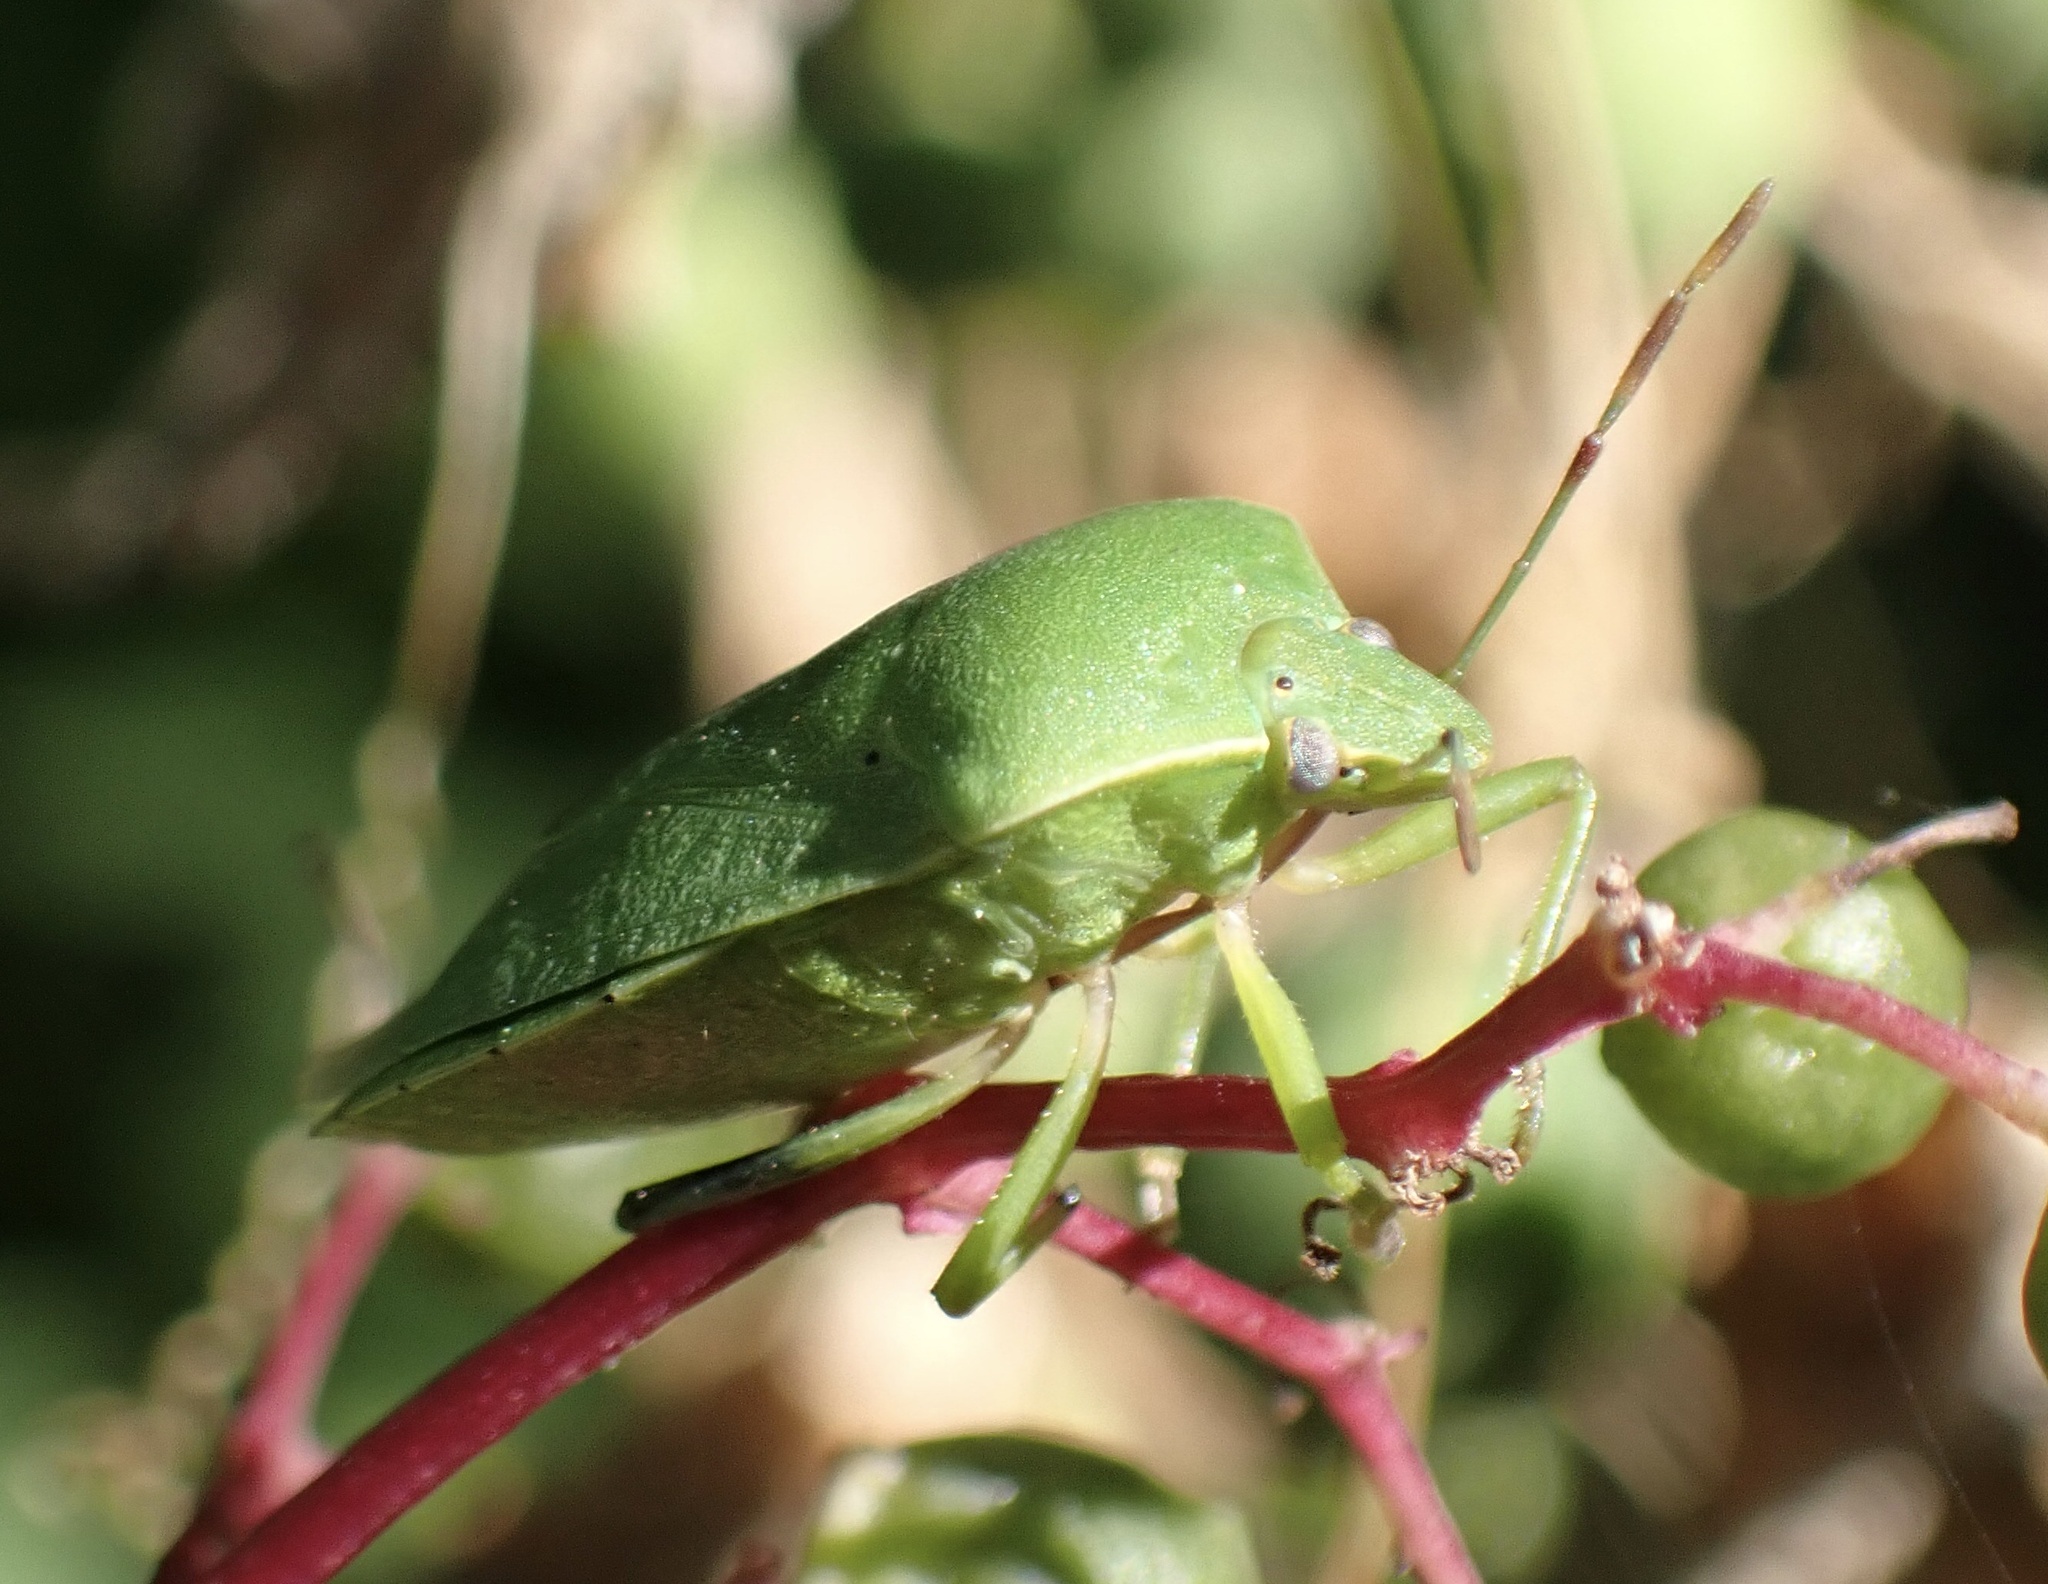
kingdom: Animalia
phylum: Arthropoda
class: Insecta
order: Hemiptera
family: Pentatomidae
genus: Nezara
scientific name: Nezara viridula
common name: Southern green stink bug
